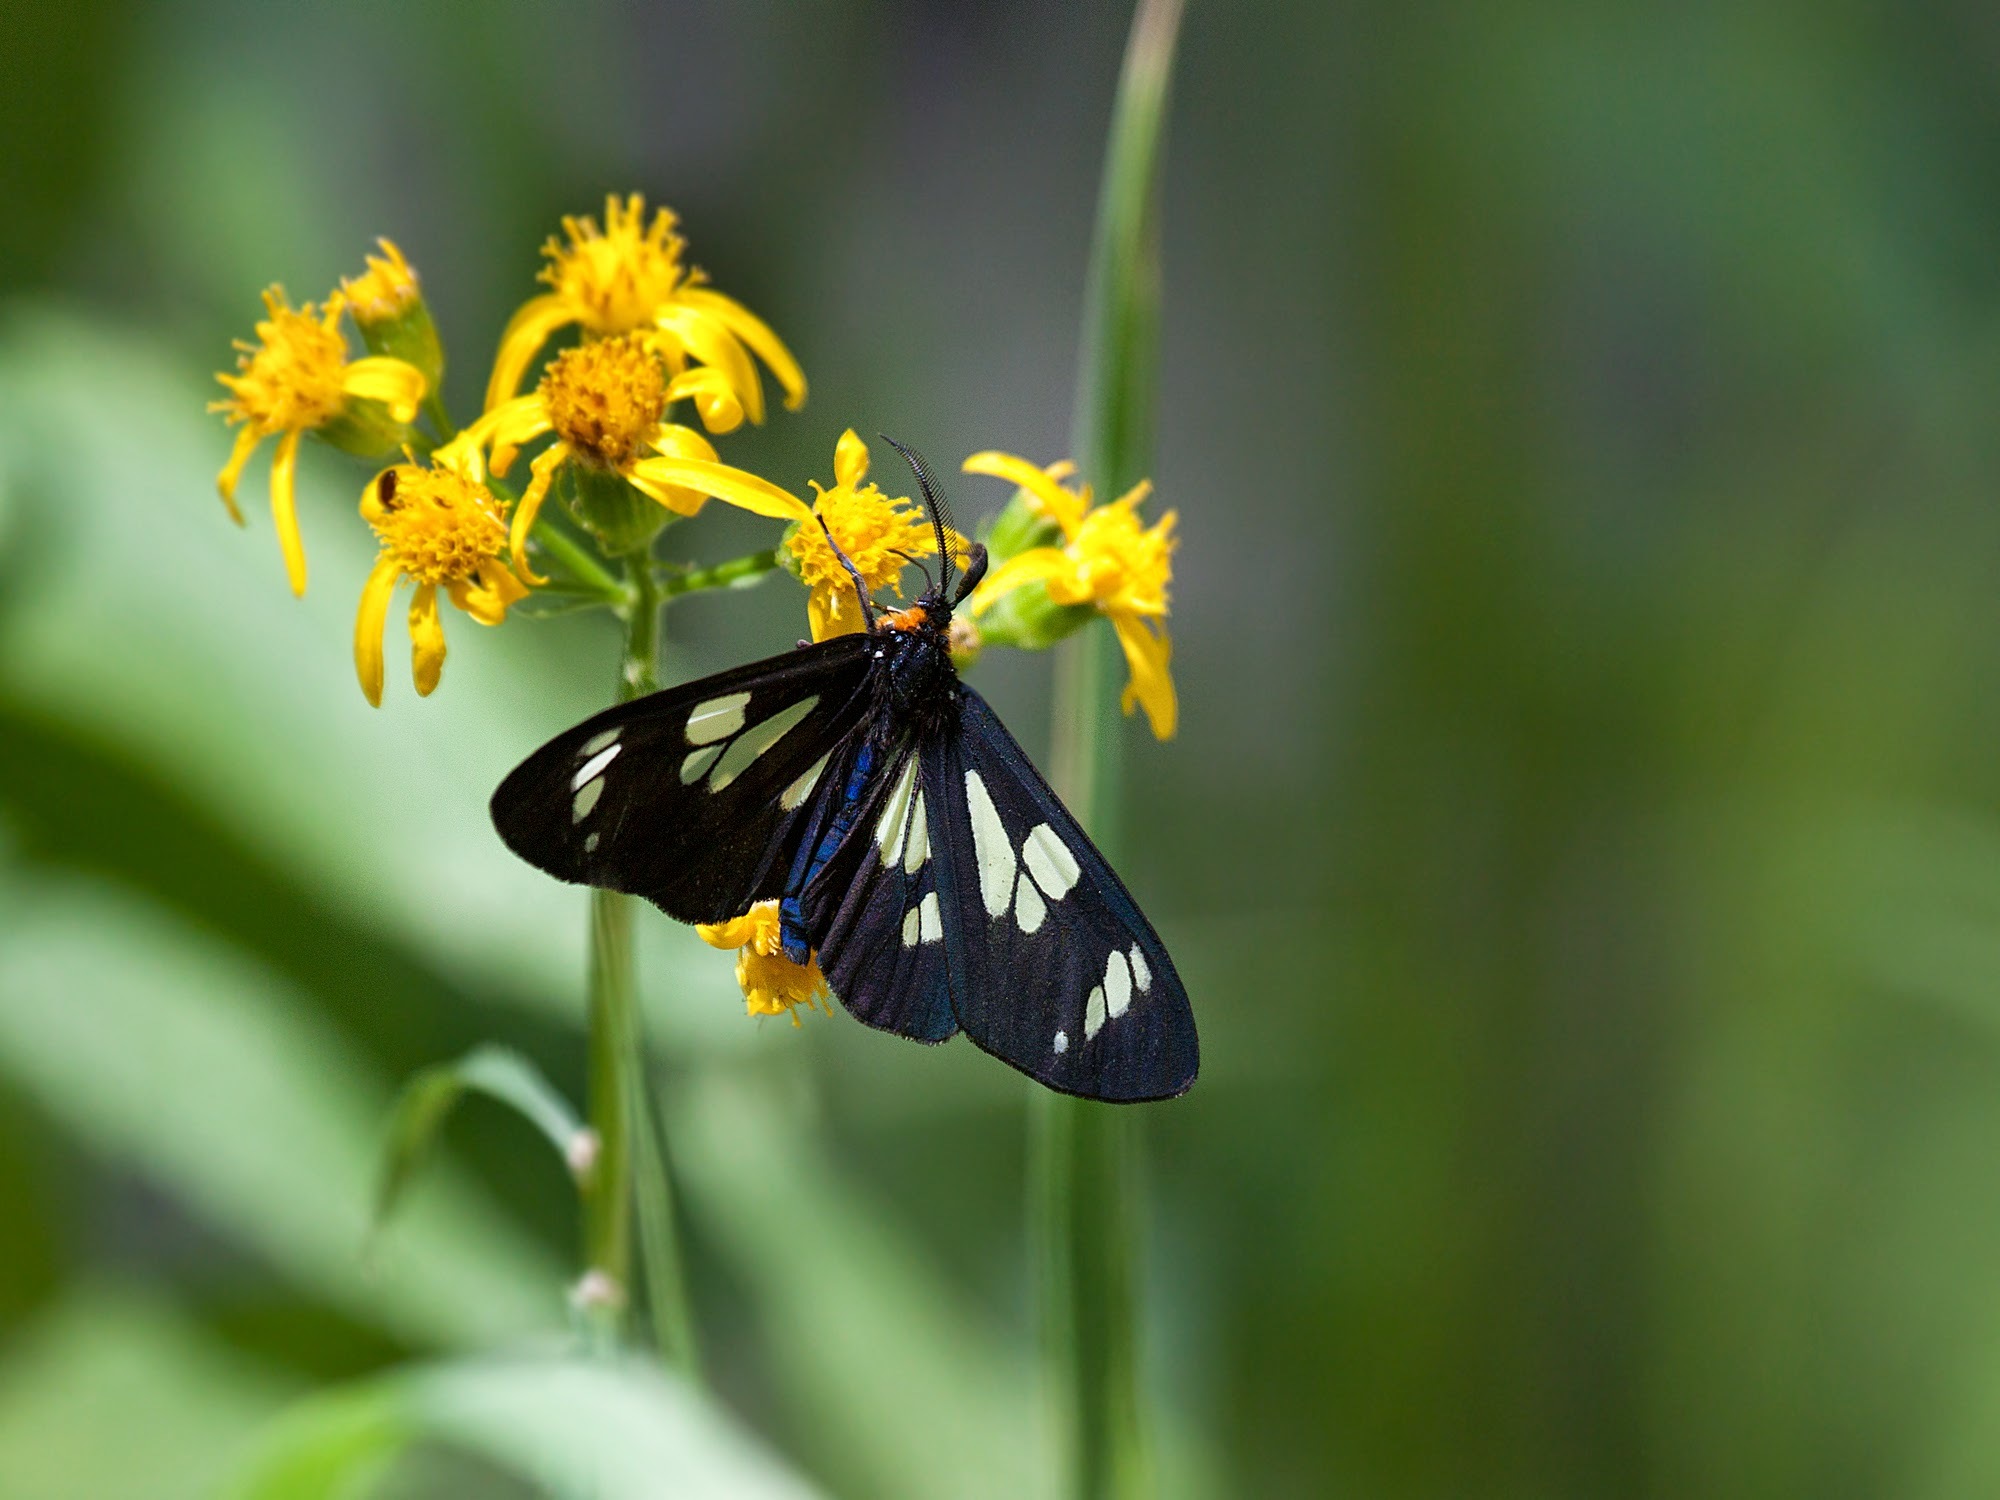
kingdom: Animalia
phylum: Arthropoda
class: Insecta
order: Lepidoptera
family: Erebidae
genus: Gnophaela
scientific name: Gnophaela latipennis
